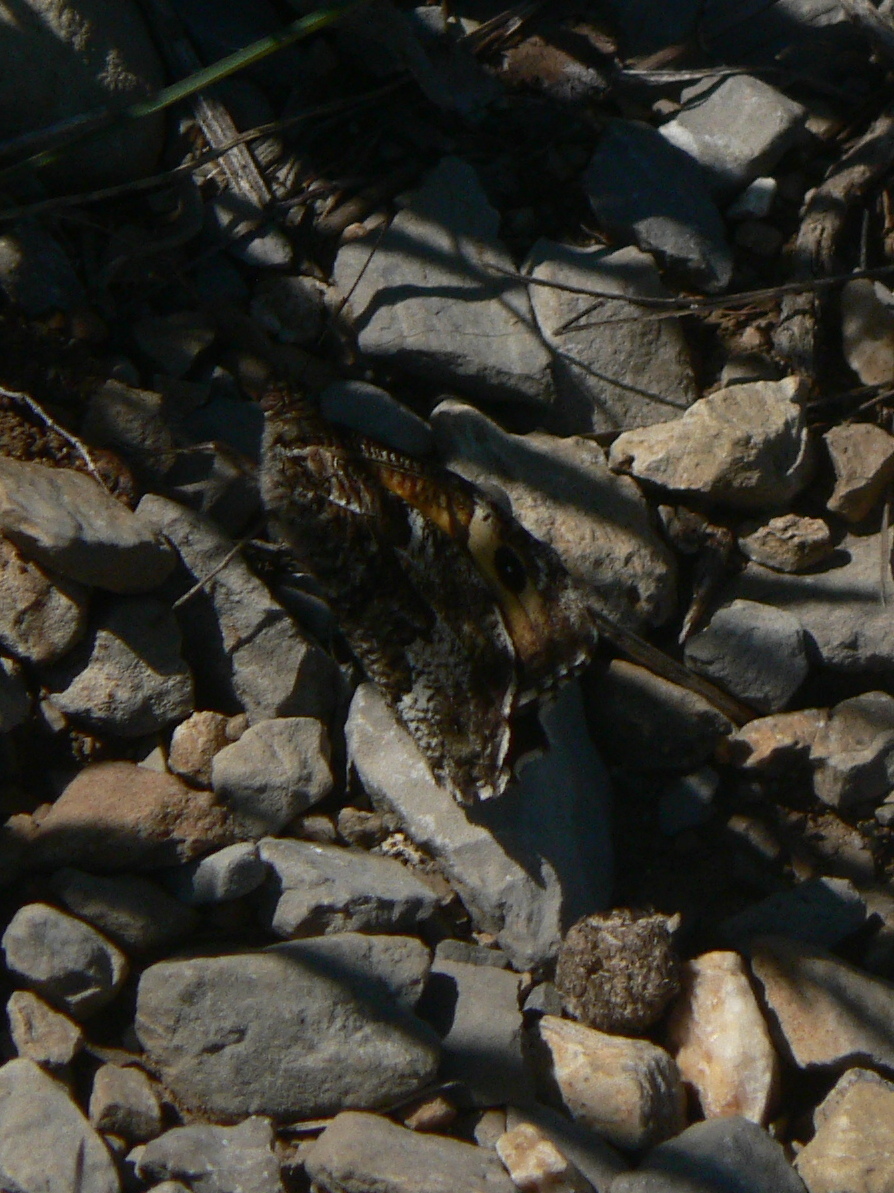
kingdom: Animalia
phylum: Arthropoda
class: Insecta
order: Lepidoptera
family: Nymphalidae
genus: Hipparchia
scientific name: Hipparchia semele
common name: Grayling
